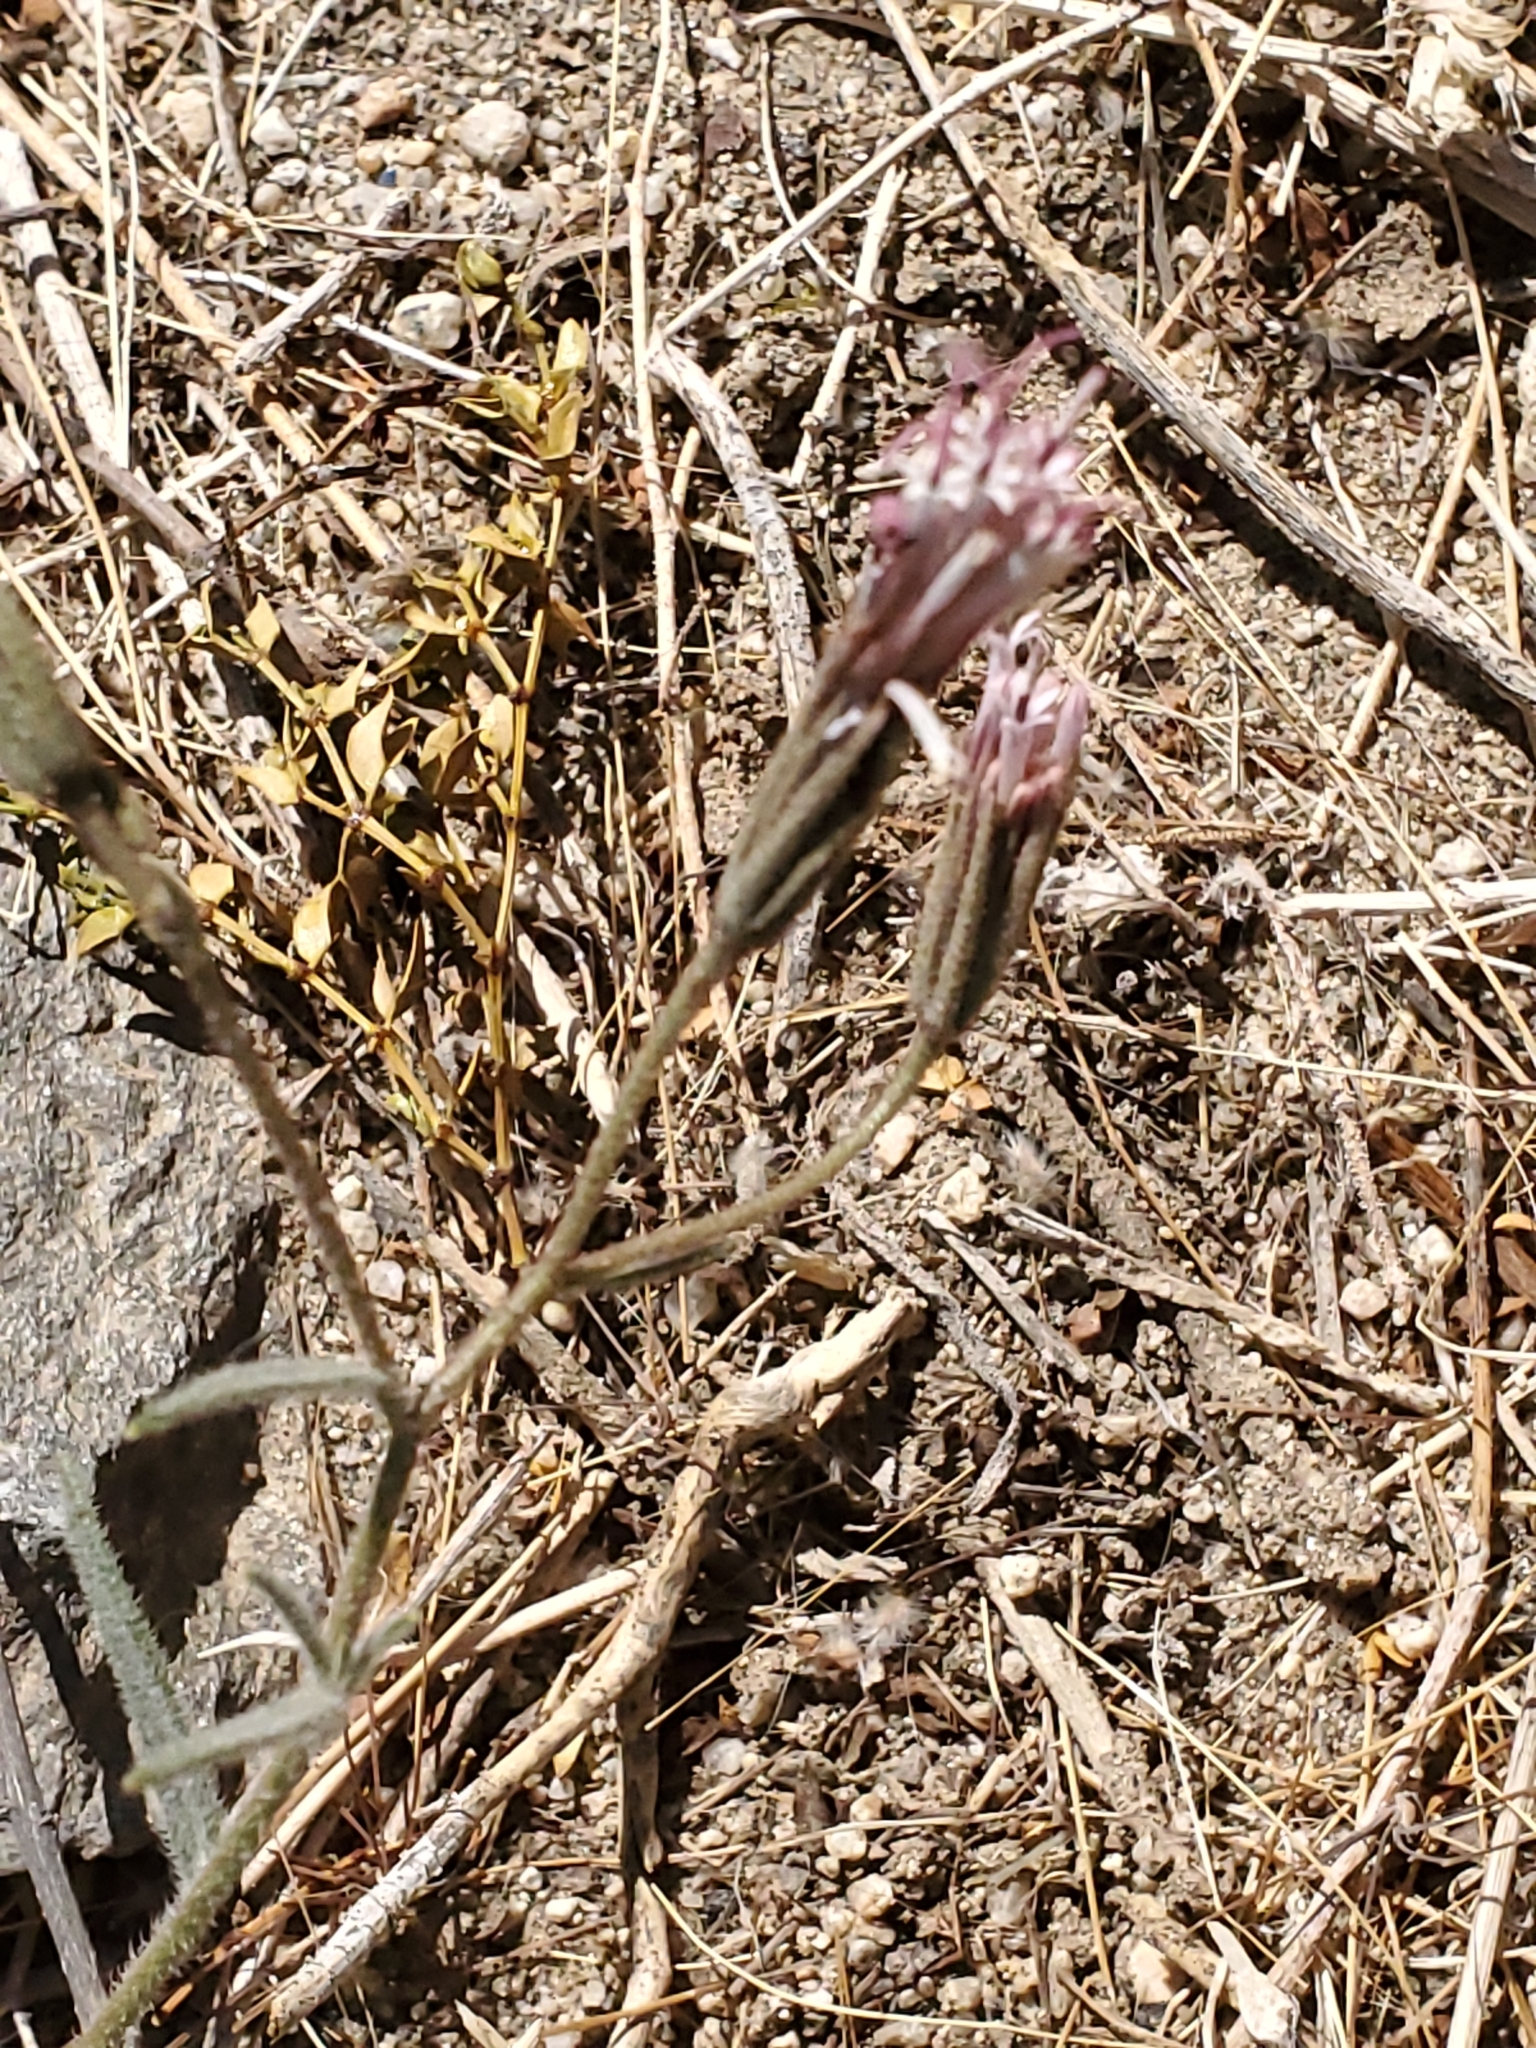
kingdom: Plantae
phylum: Tracheophyta
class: Magnoliopsida
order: Asterales
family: Asteraceae
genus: Palafoxia
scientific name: Palafoxia arida
